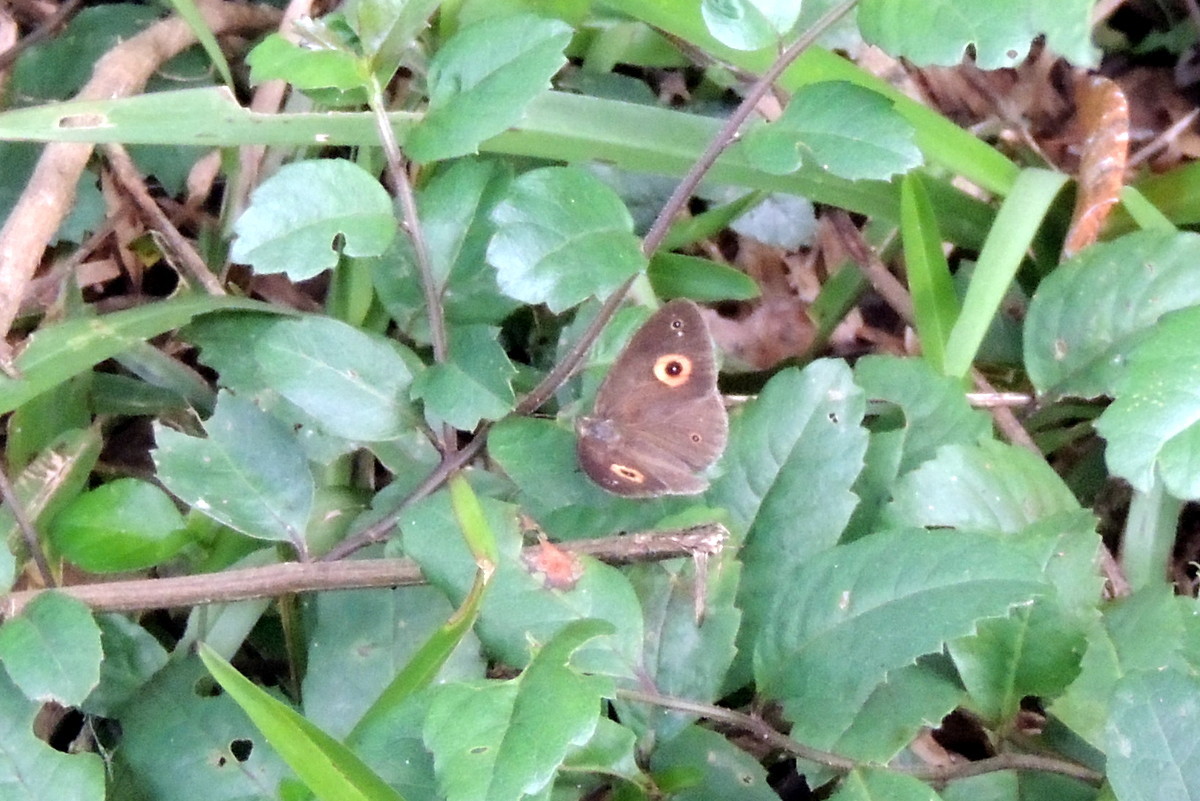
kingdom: Animalia
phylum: Arthropoda
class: Insecta
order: Lepidoptera
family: Nymphalidae
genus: Heteropsis
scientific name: Heteropsis andasibe
